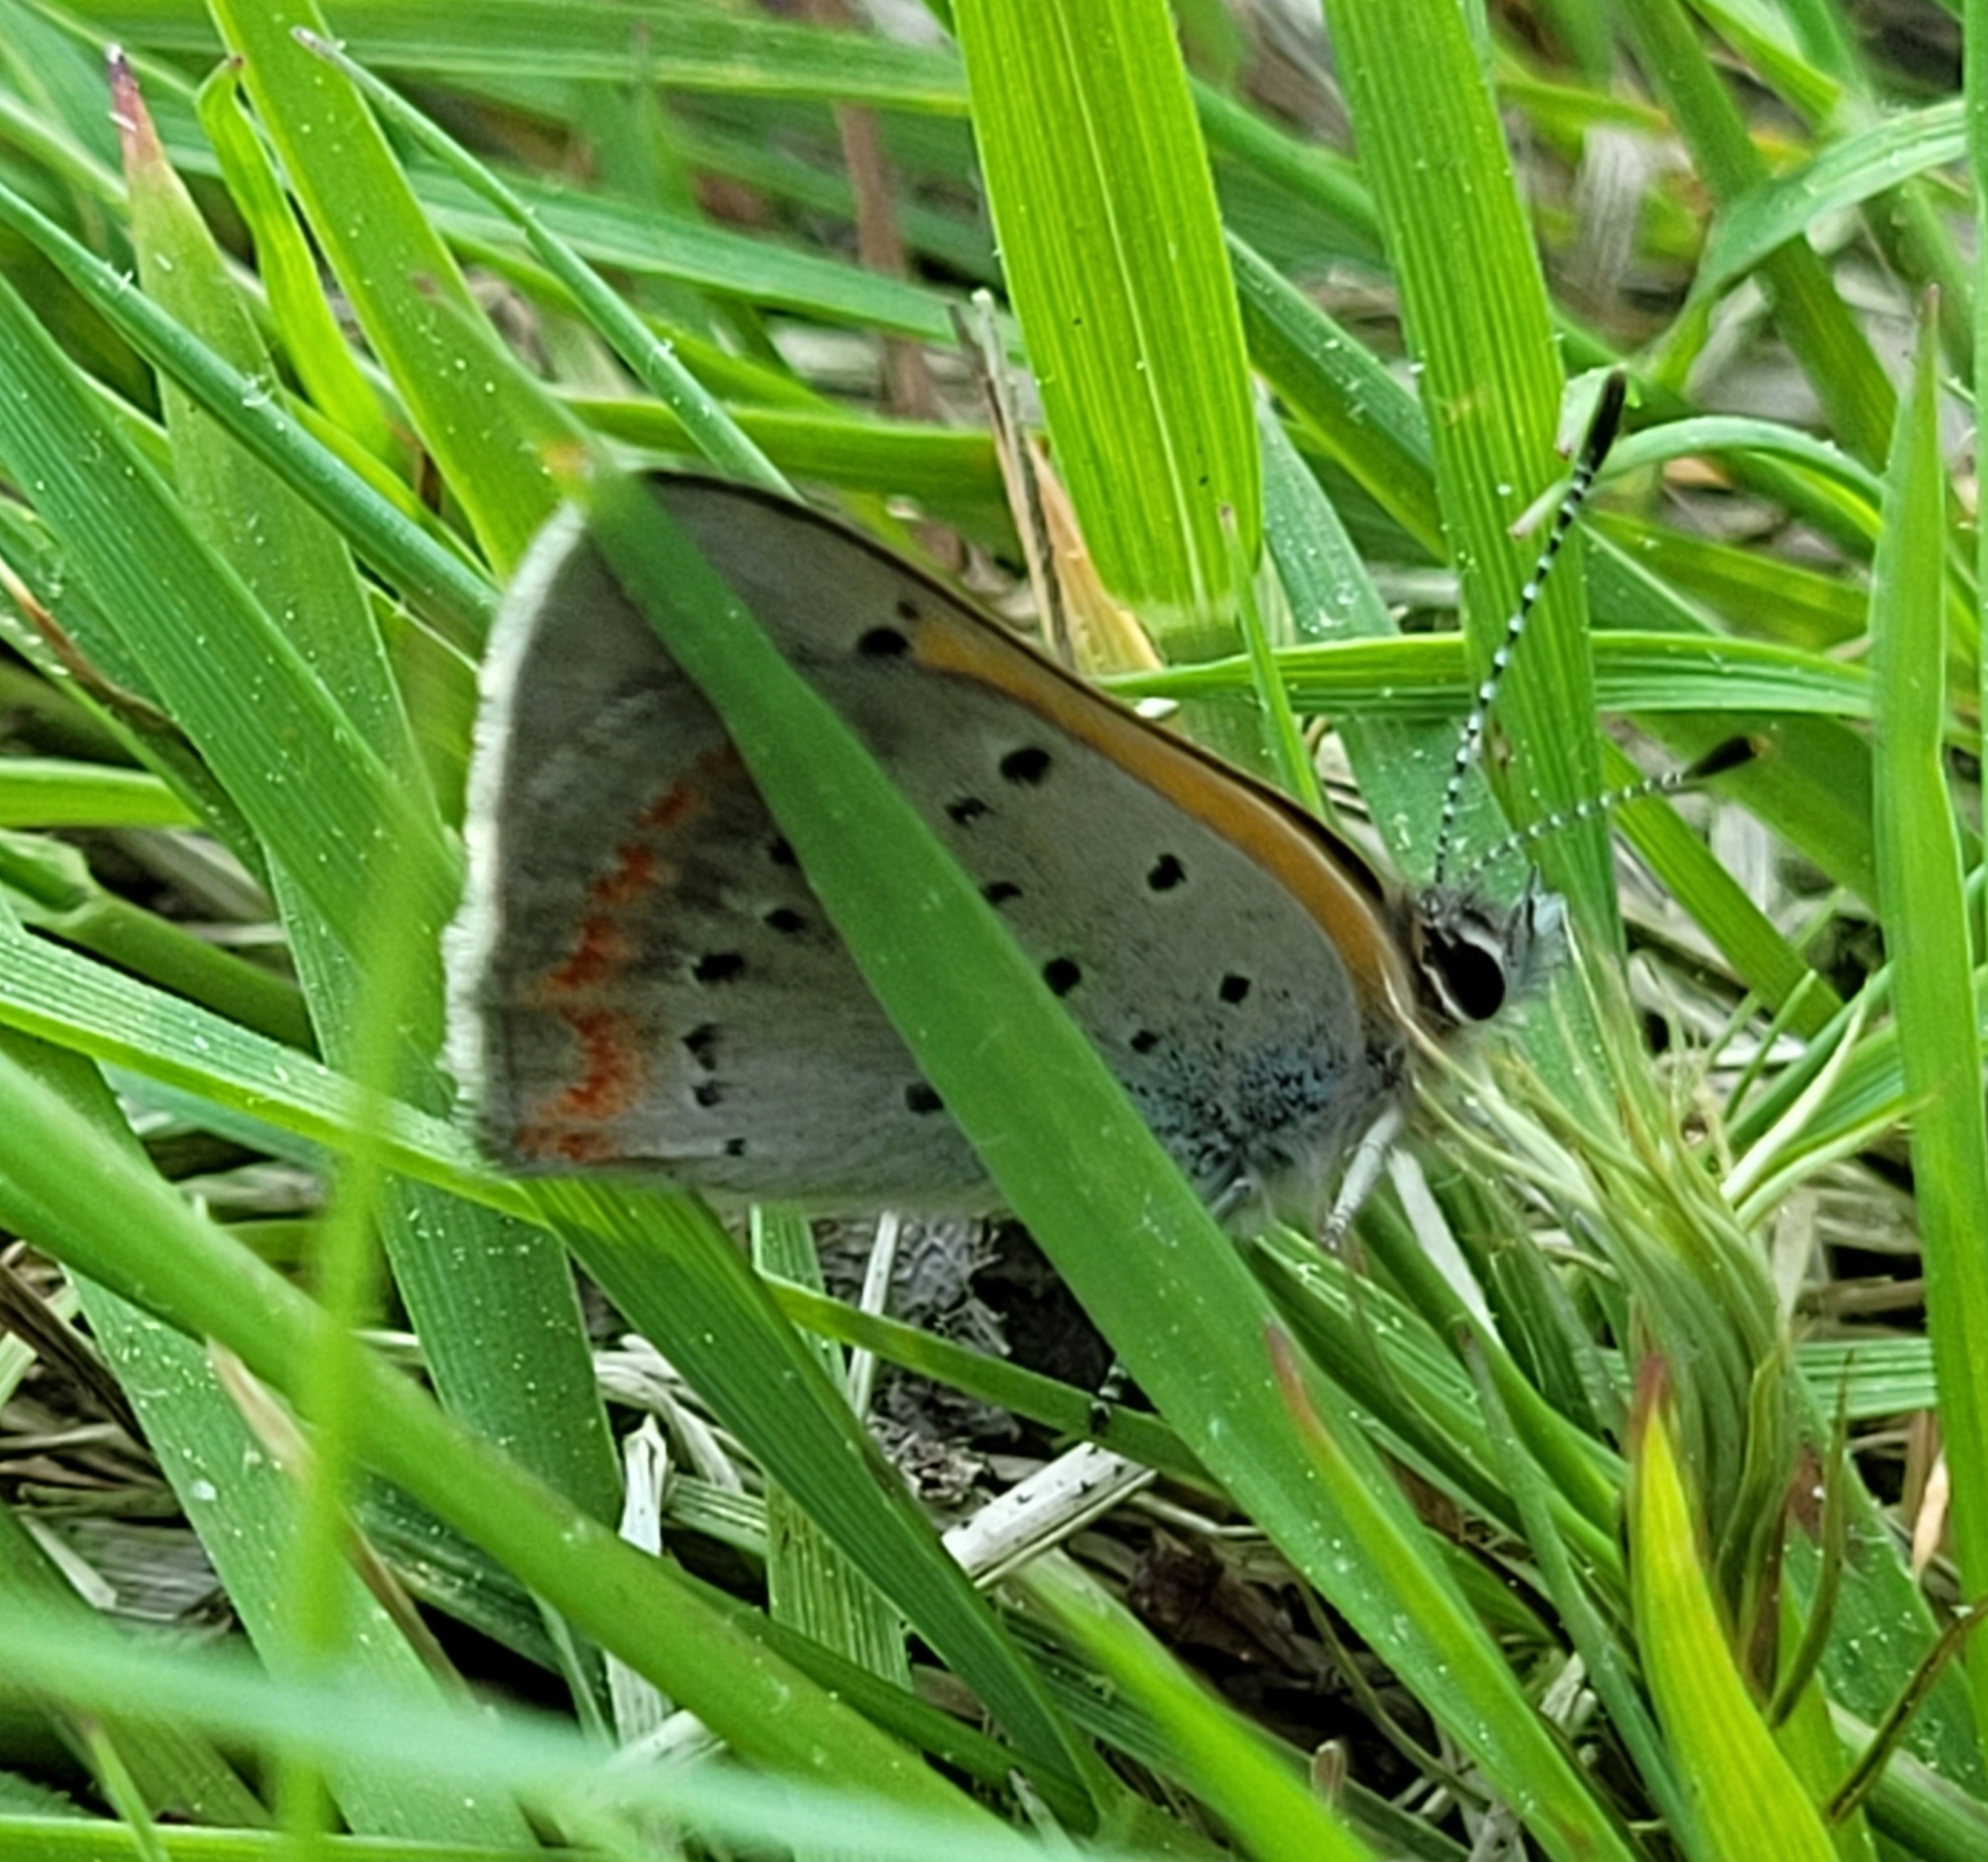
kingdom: Animalia
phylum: Arthropoda
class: Insecta
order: Lepidoptera
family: Lycaenidae
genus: Lycaena
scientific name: Lycaena hypophlaeas
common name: American copper
